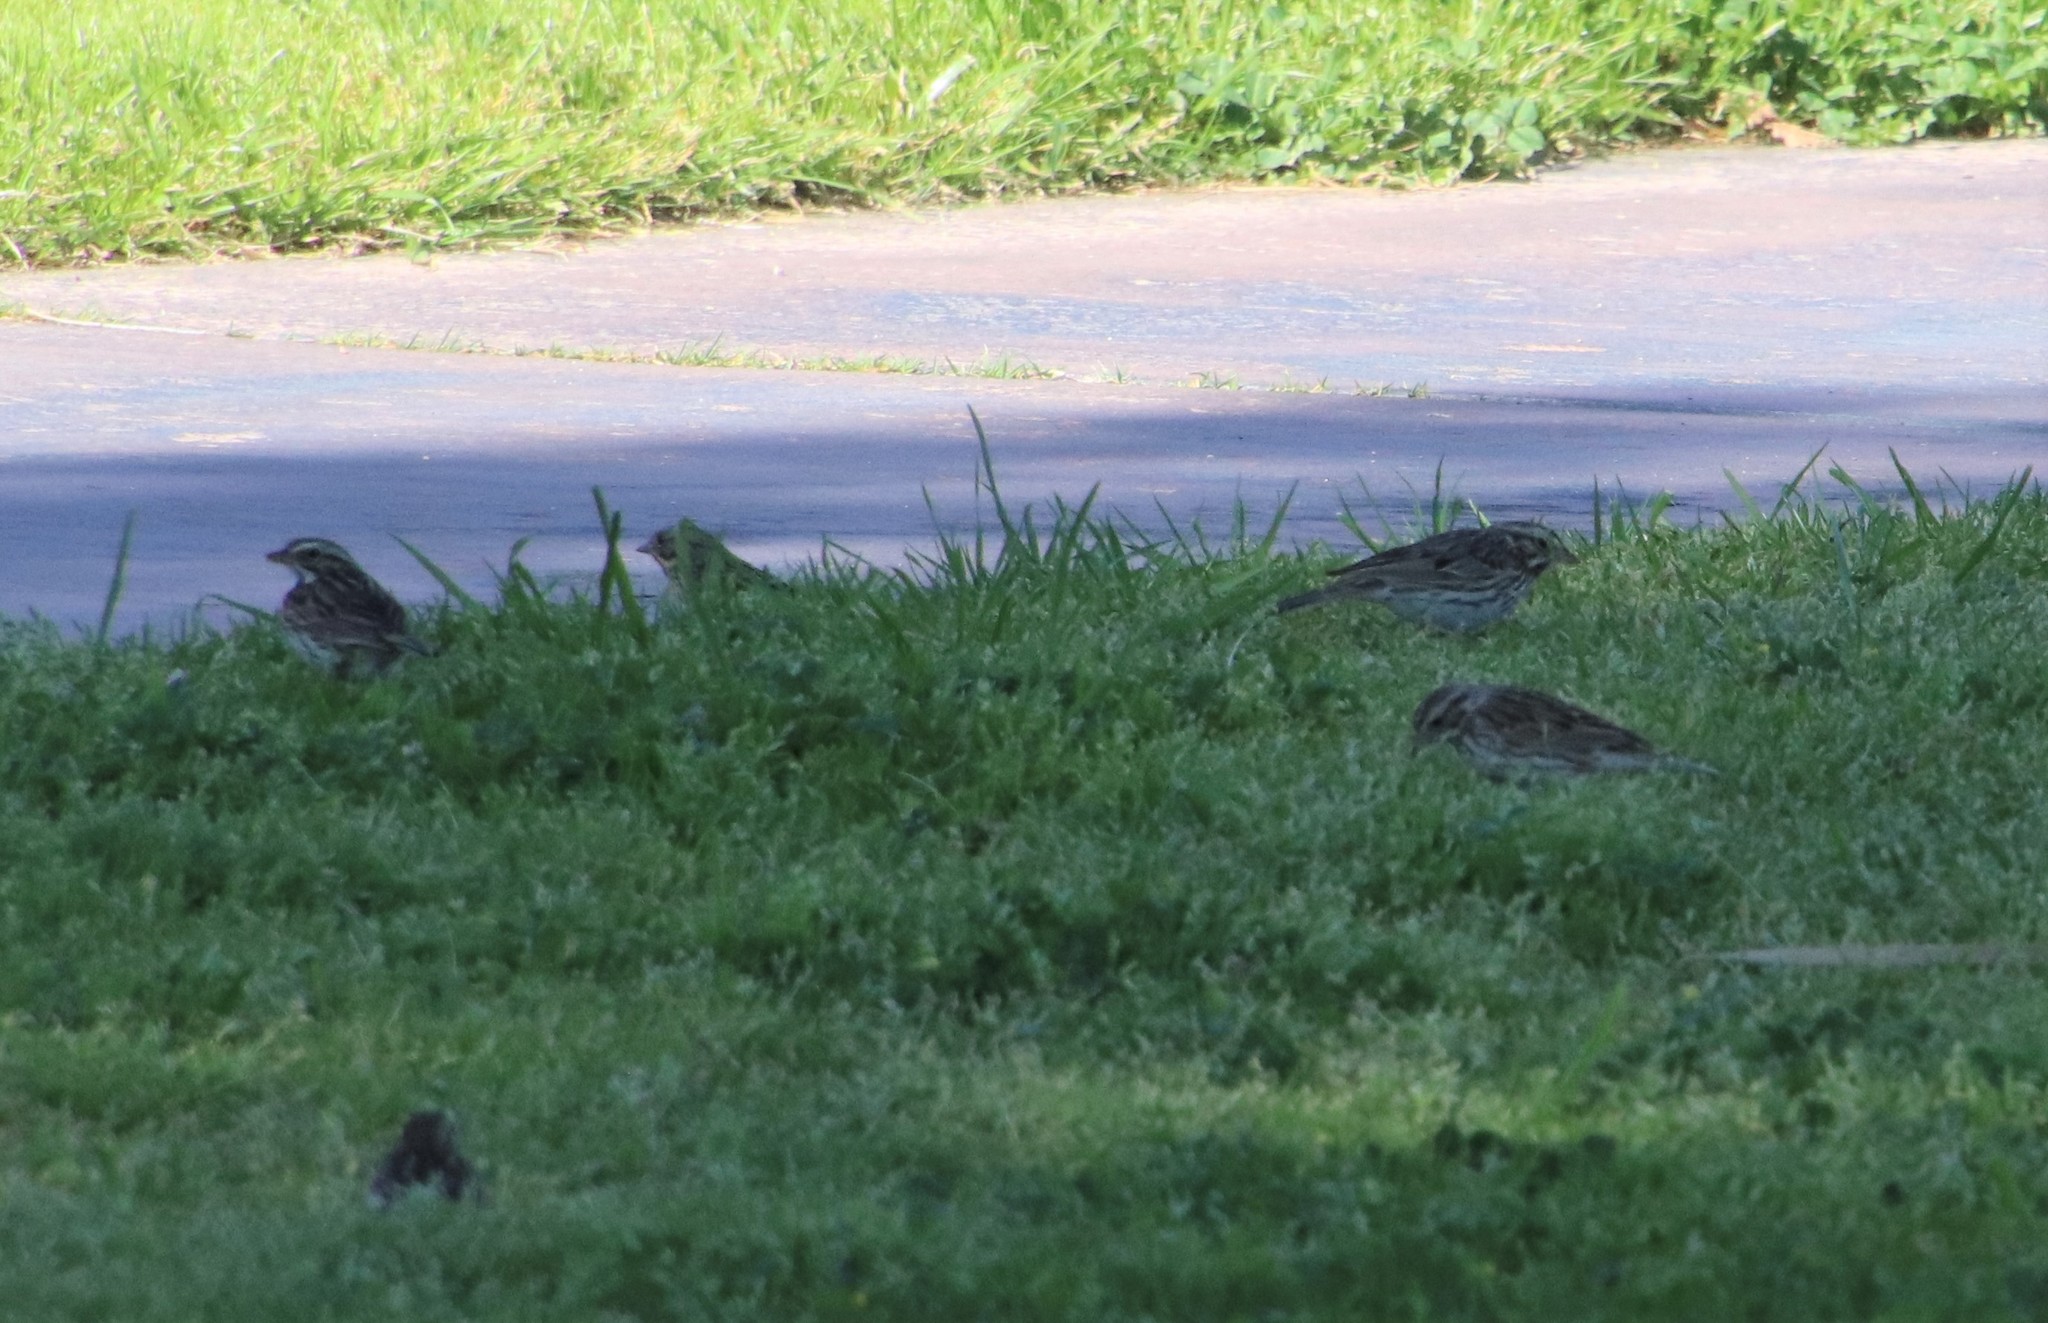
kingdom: Animalia
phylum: Chordata
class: Aves
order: Passeriformes
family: Passerellidae
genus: Passerculus
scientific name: Passerculus sandwichensis
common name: Savannah sparrow
